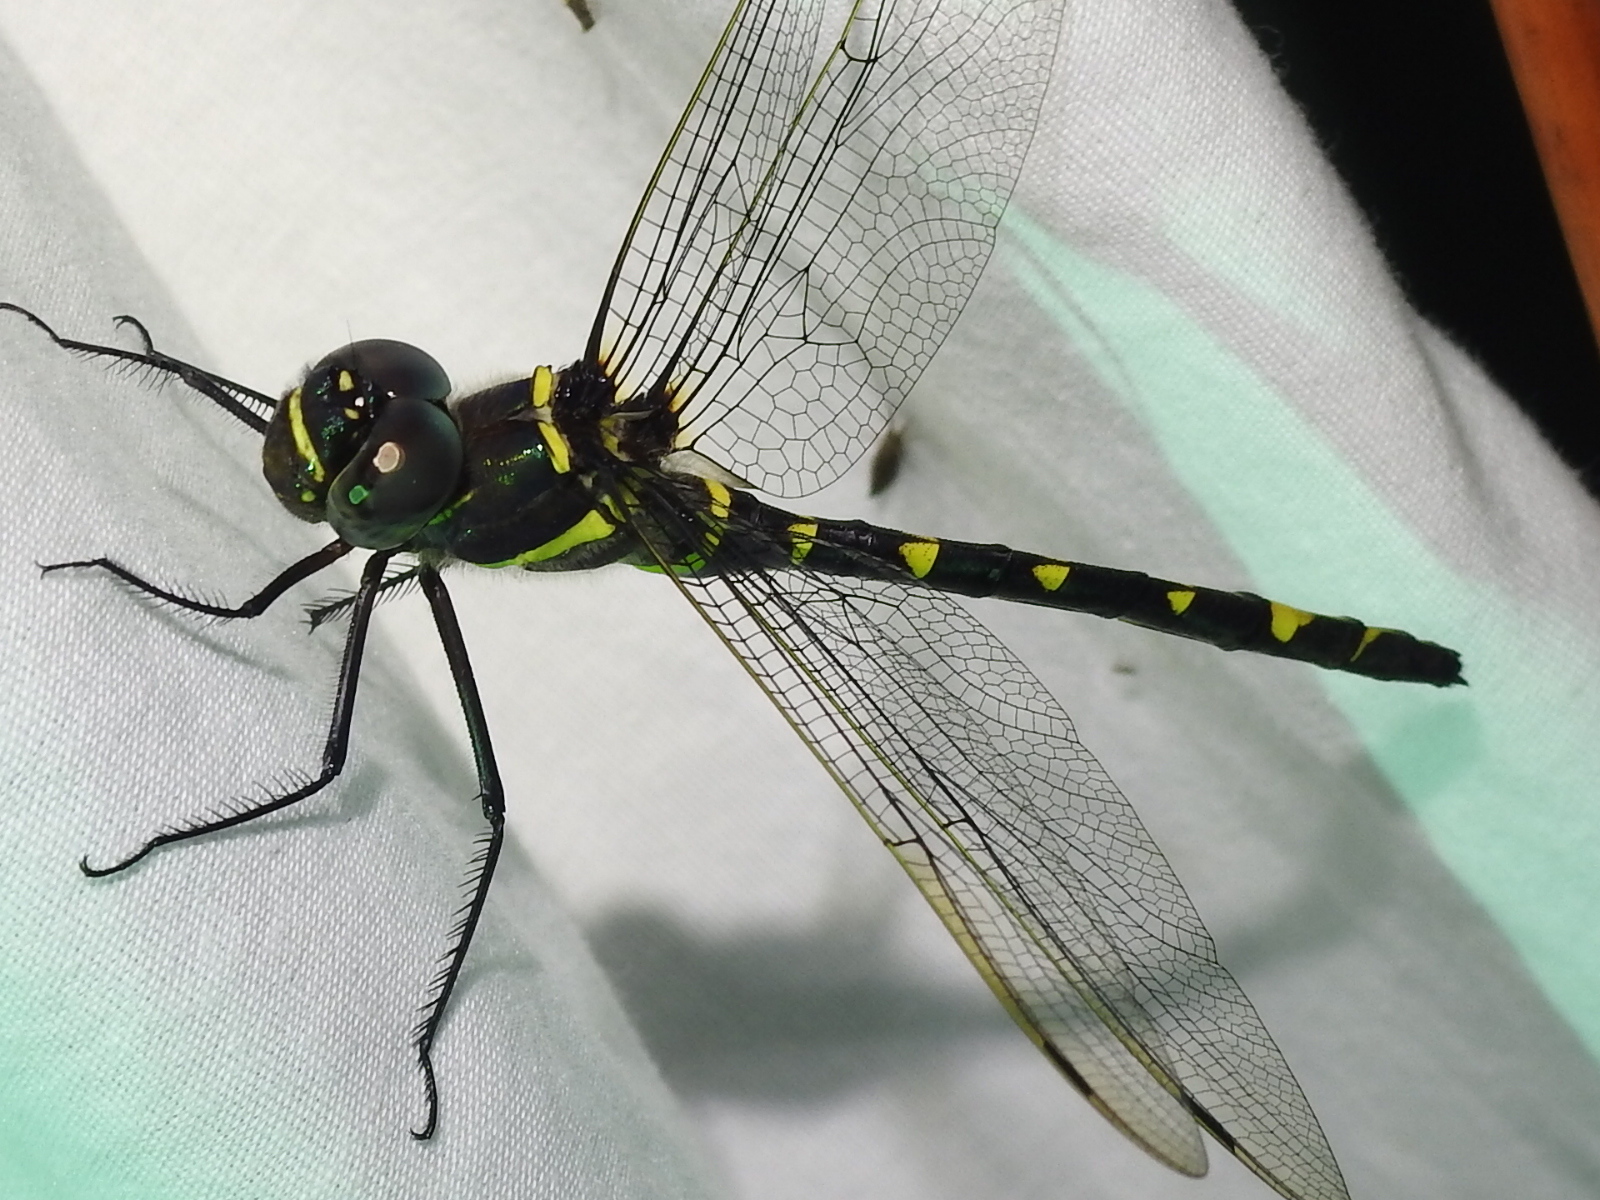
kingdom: Animalia
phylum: Arthropoda
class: Insecta
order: Odonata
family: Macromiidae
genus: Macromia
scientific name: Macromia illinoiensis
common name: Swift river cruiser
